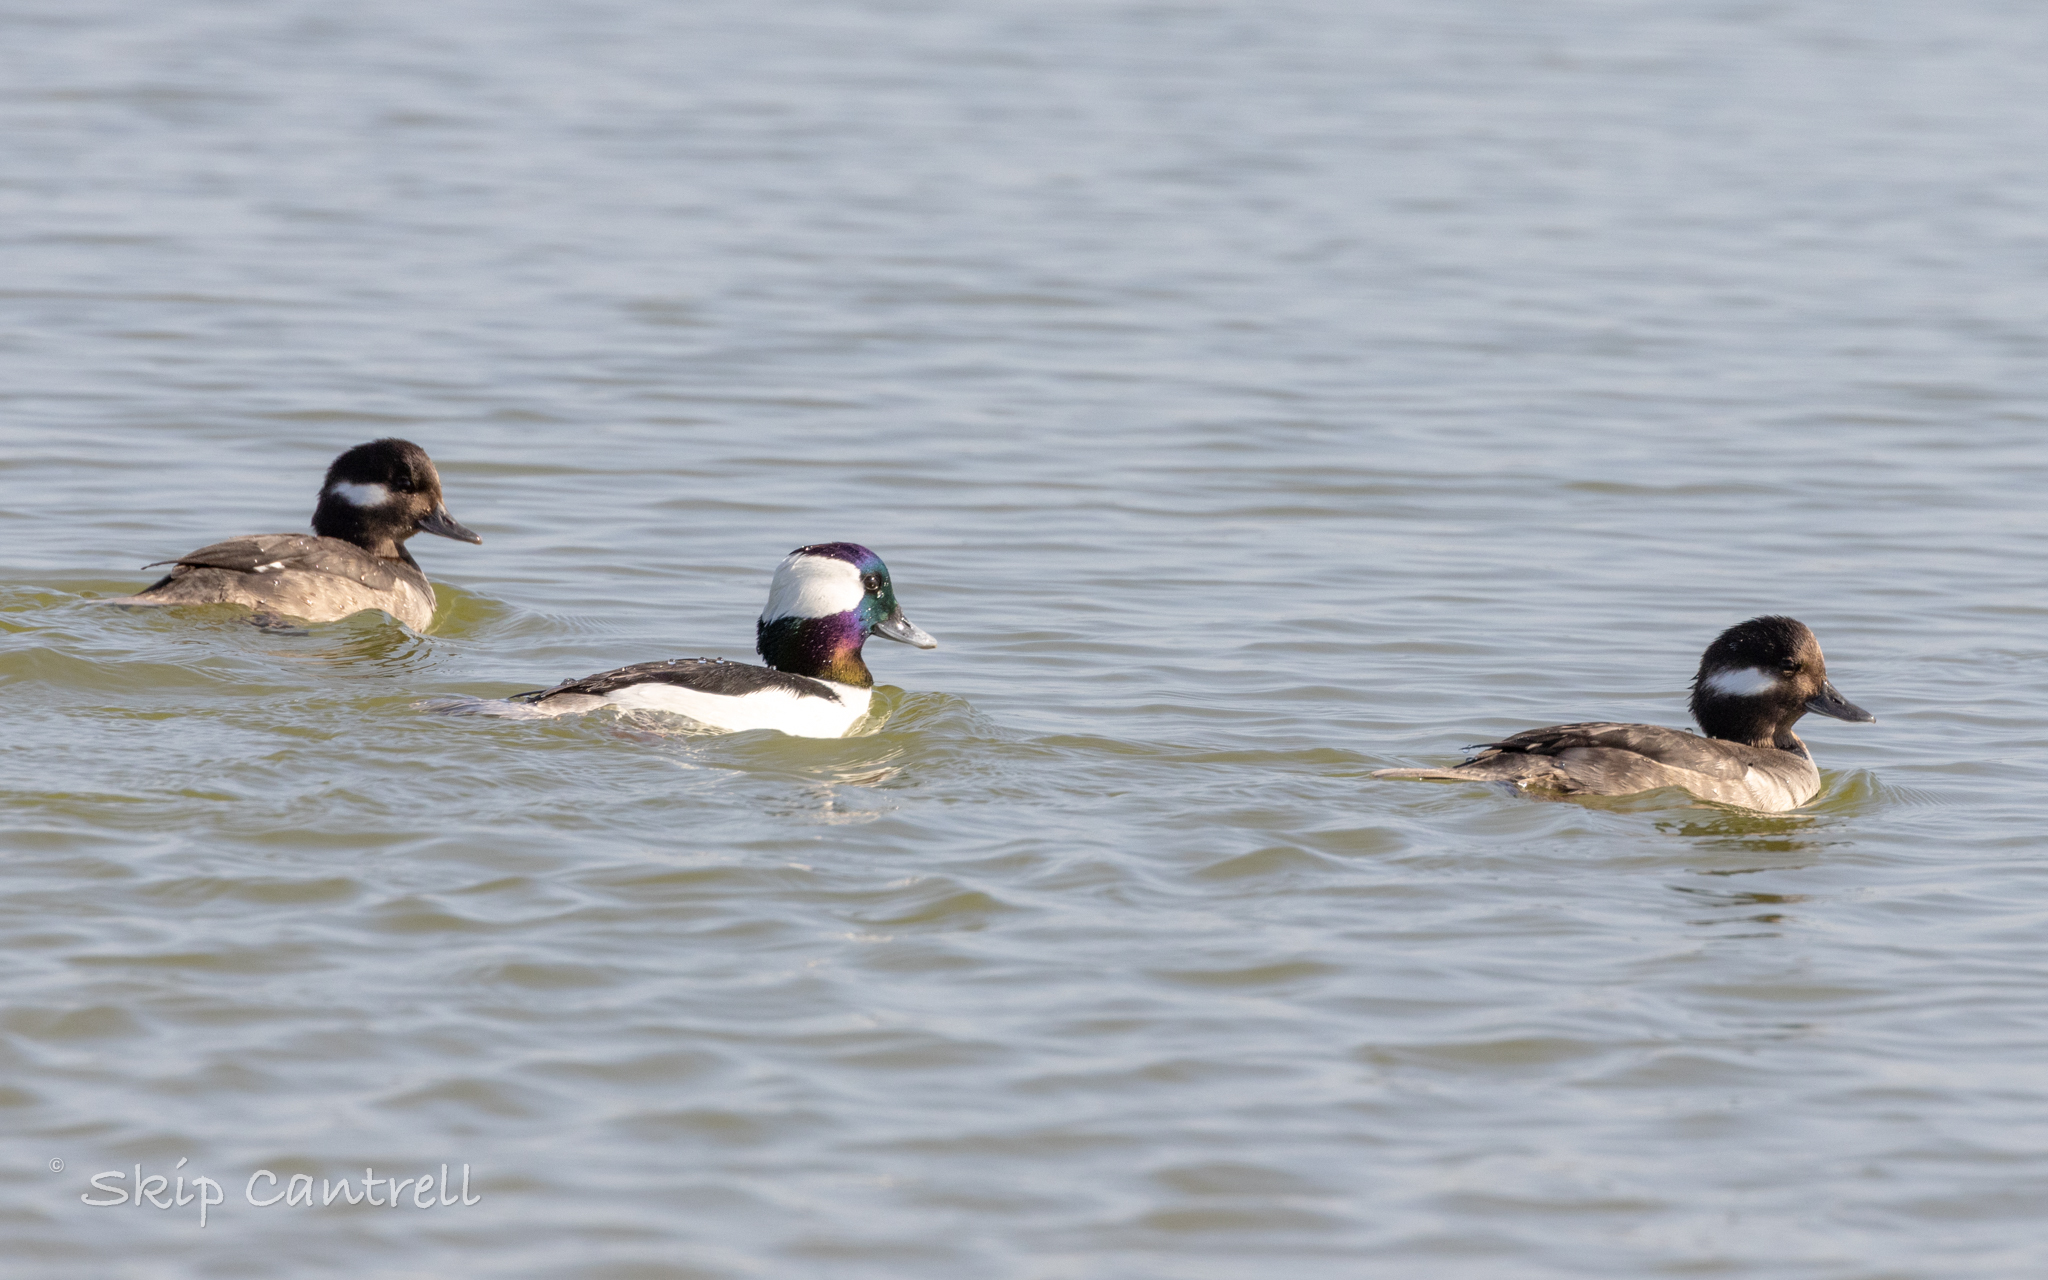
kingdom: Animalia
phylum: Chordata
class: Aves
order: Anseriformes
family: Anatidae
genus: Bucephala
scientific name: Bucephala albeola
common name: Bufflehead
